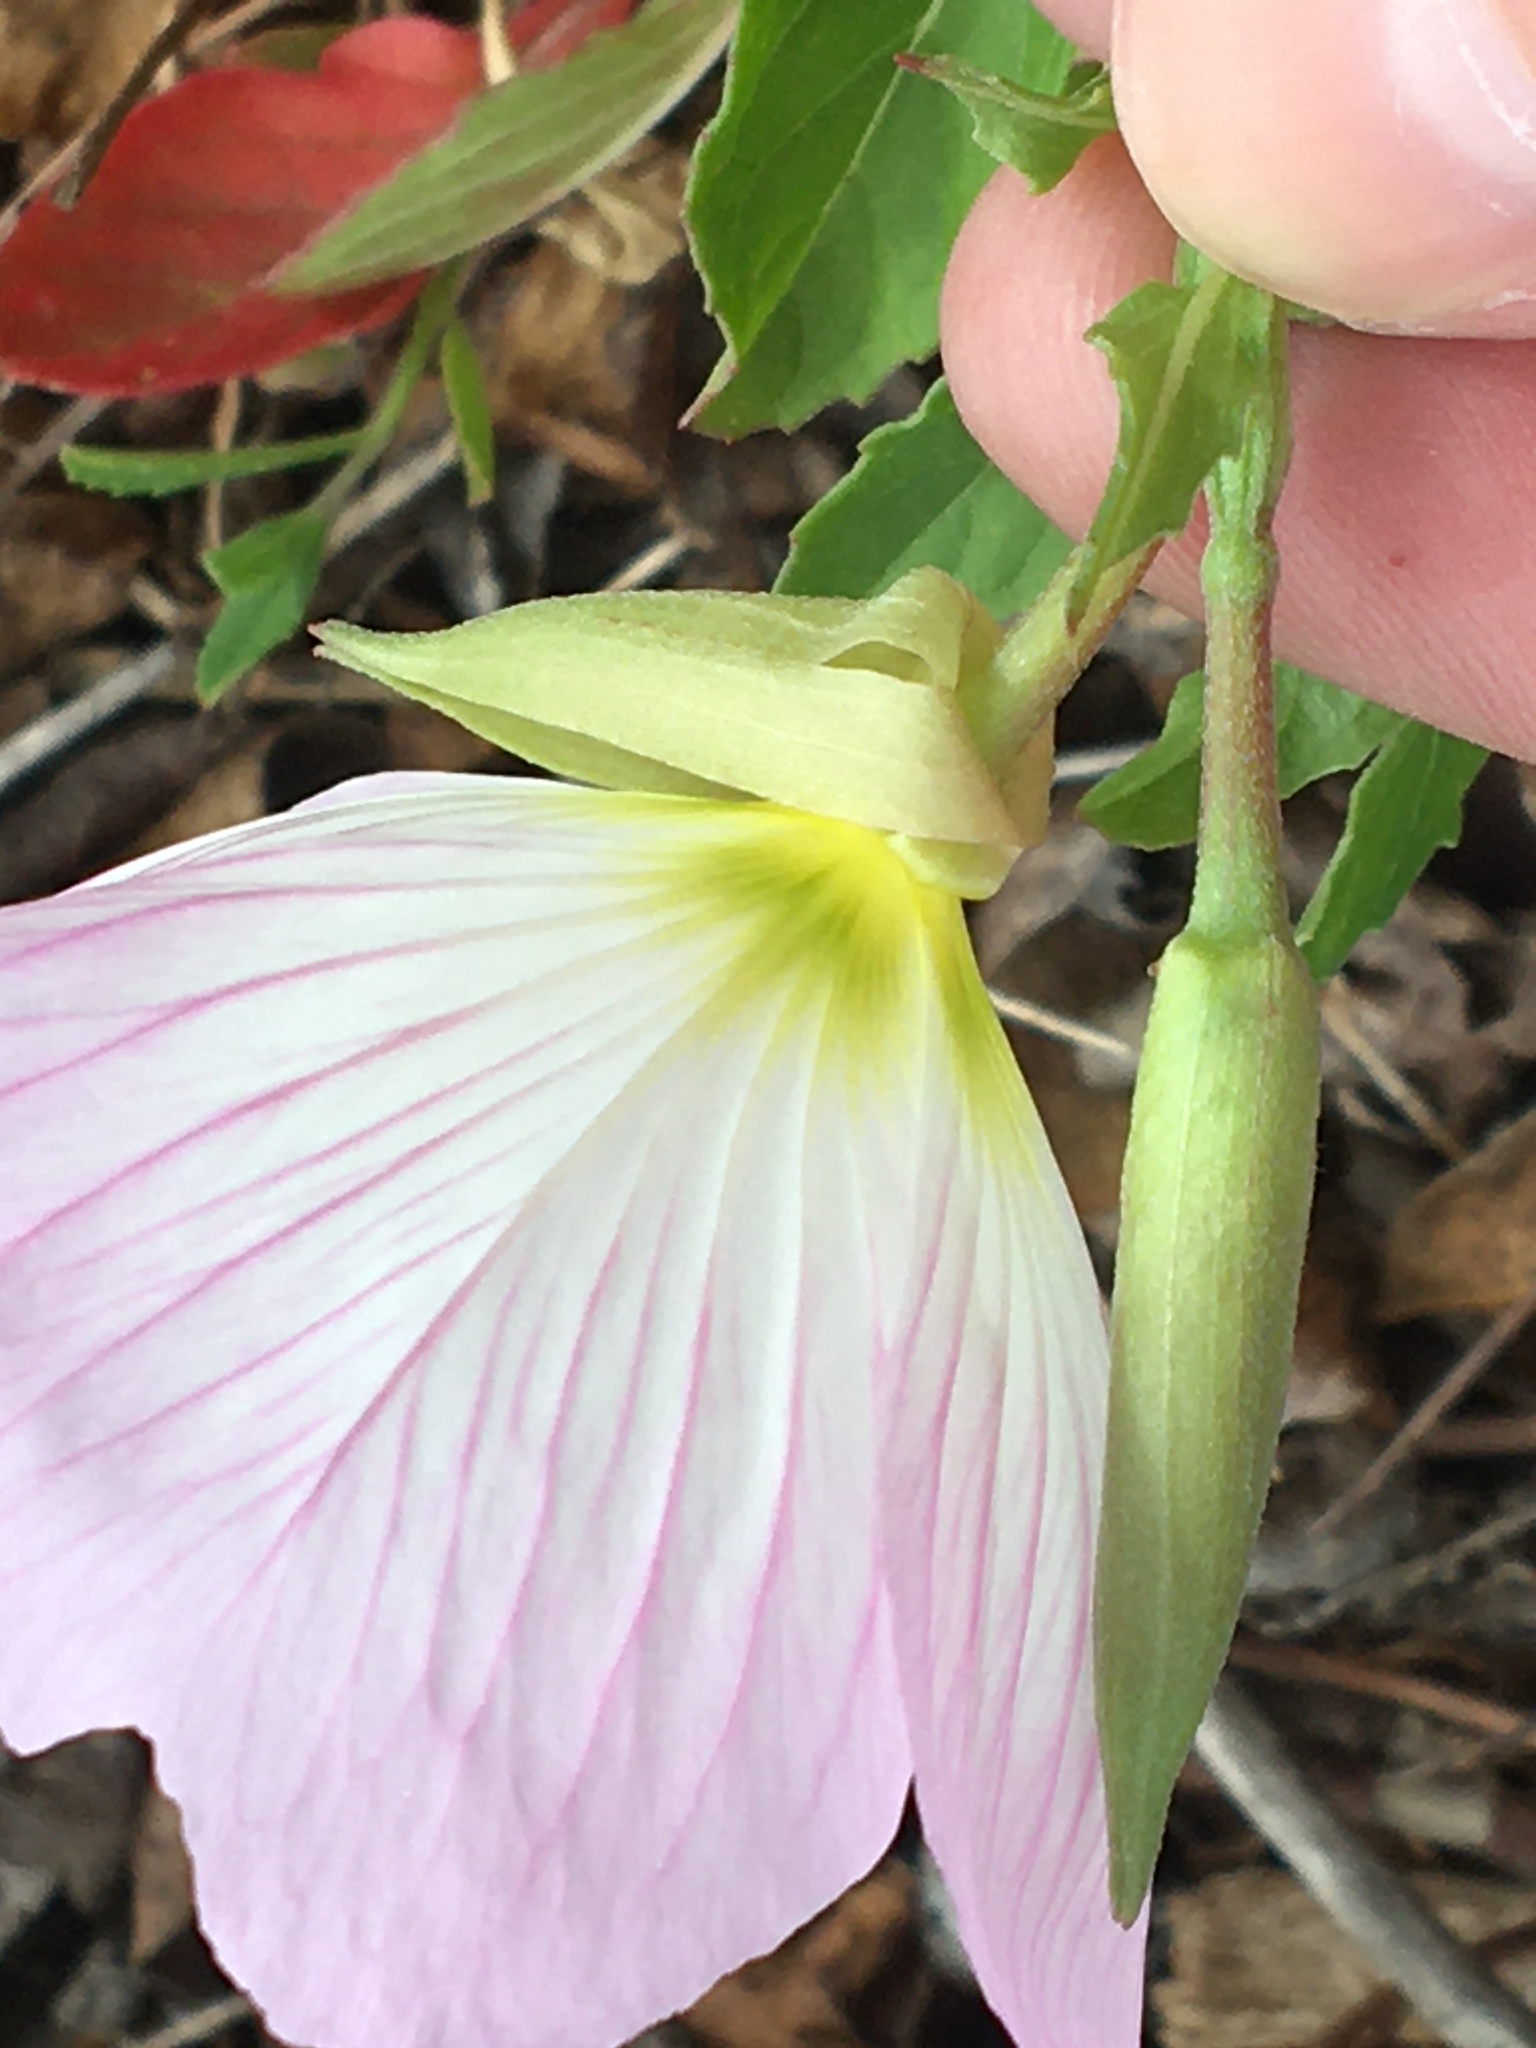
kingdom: Plantae
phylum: Tracheophyta
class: Magnoliopsida
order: Myrtales
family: Onagraceae
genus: Oenothera
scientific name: Oenothera speciosa
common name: White evening-primrose
